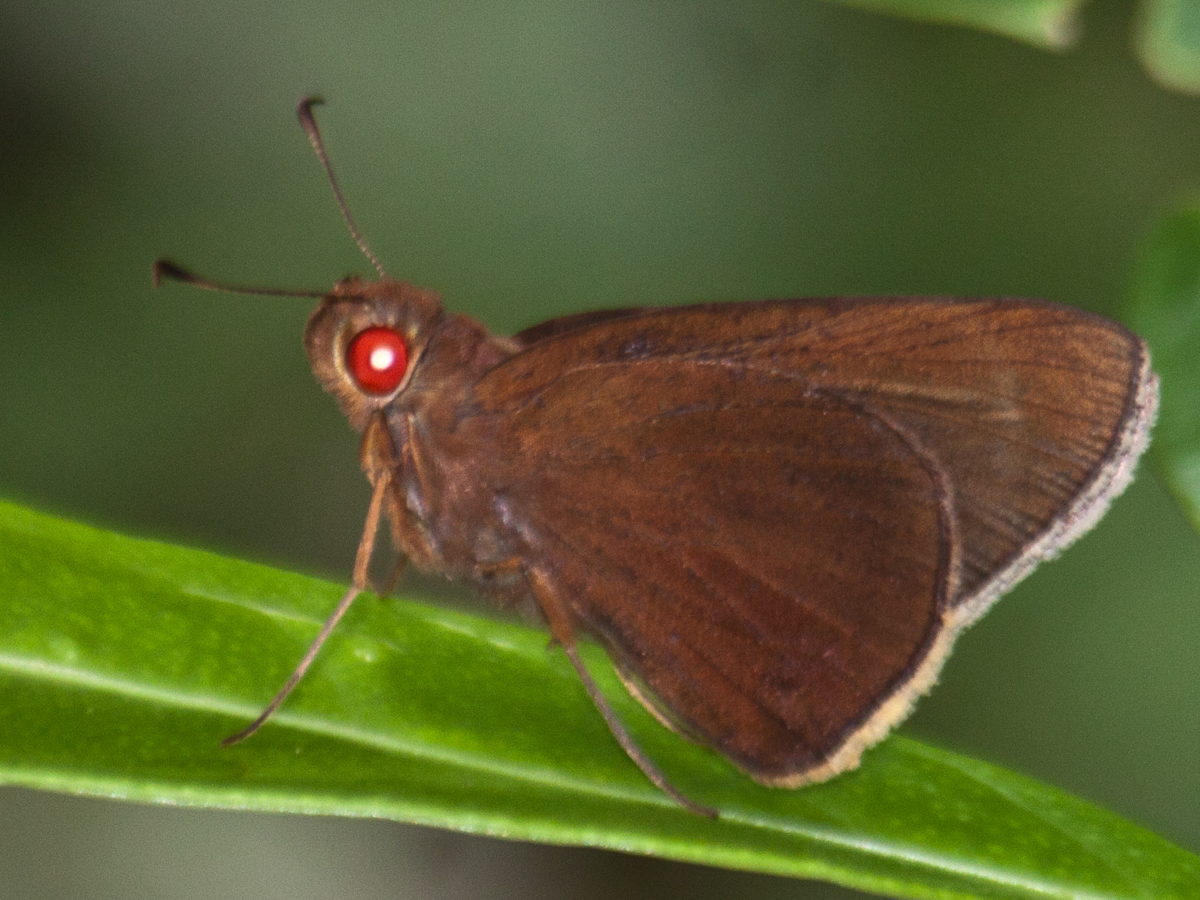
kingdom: Animalia
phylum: Arthropoda
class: Insecta
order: Lepidoptera
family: Hesperiidae
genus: Matapa
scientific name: Matapa aria
